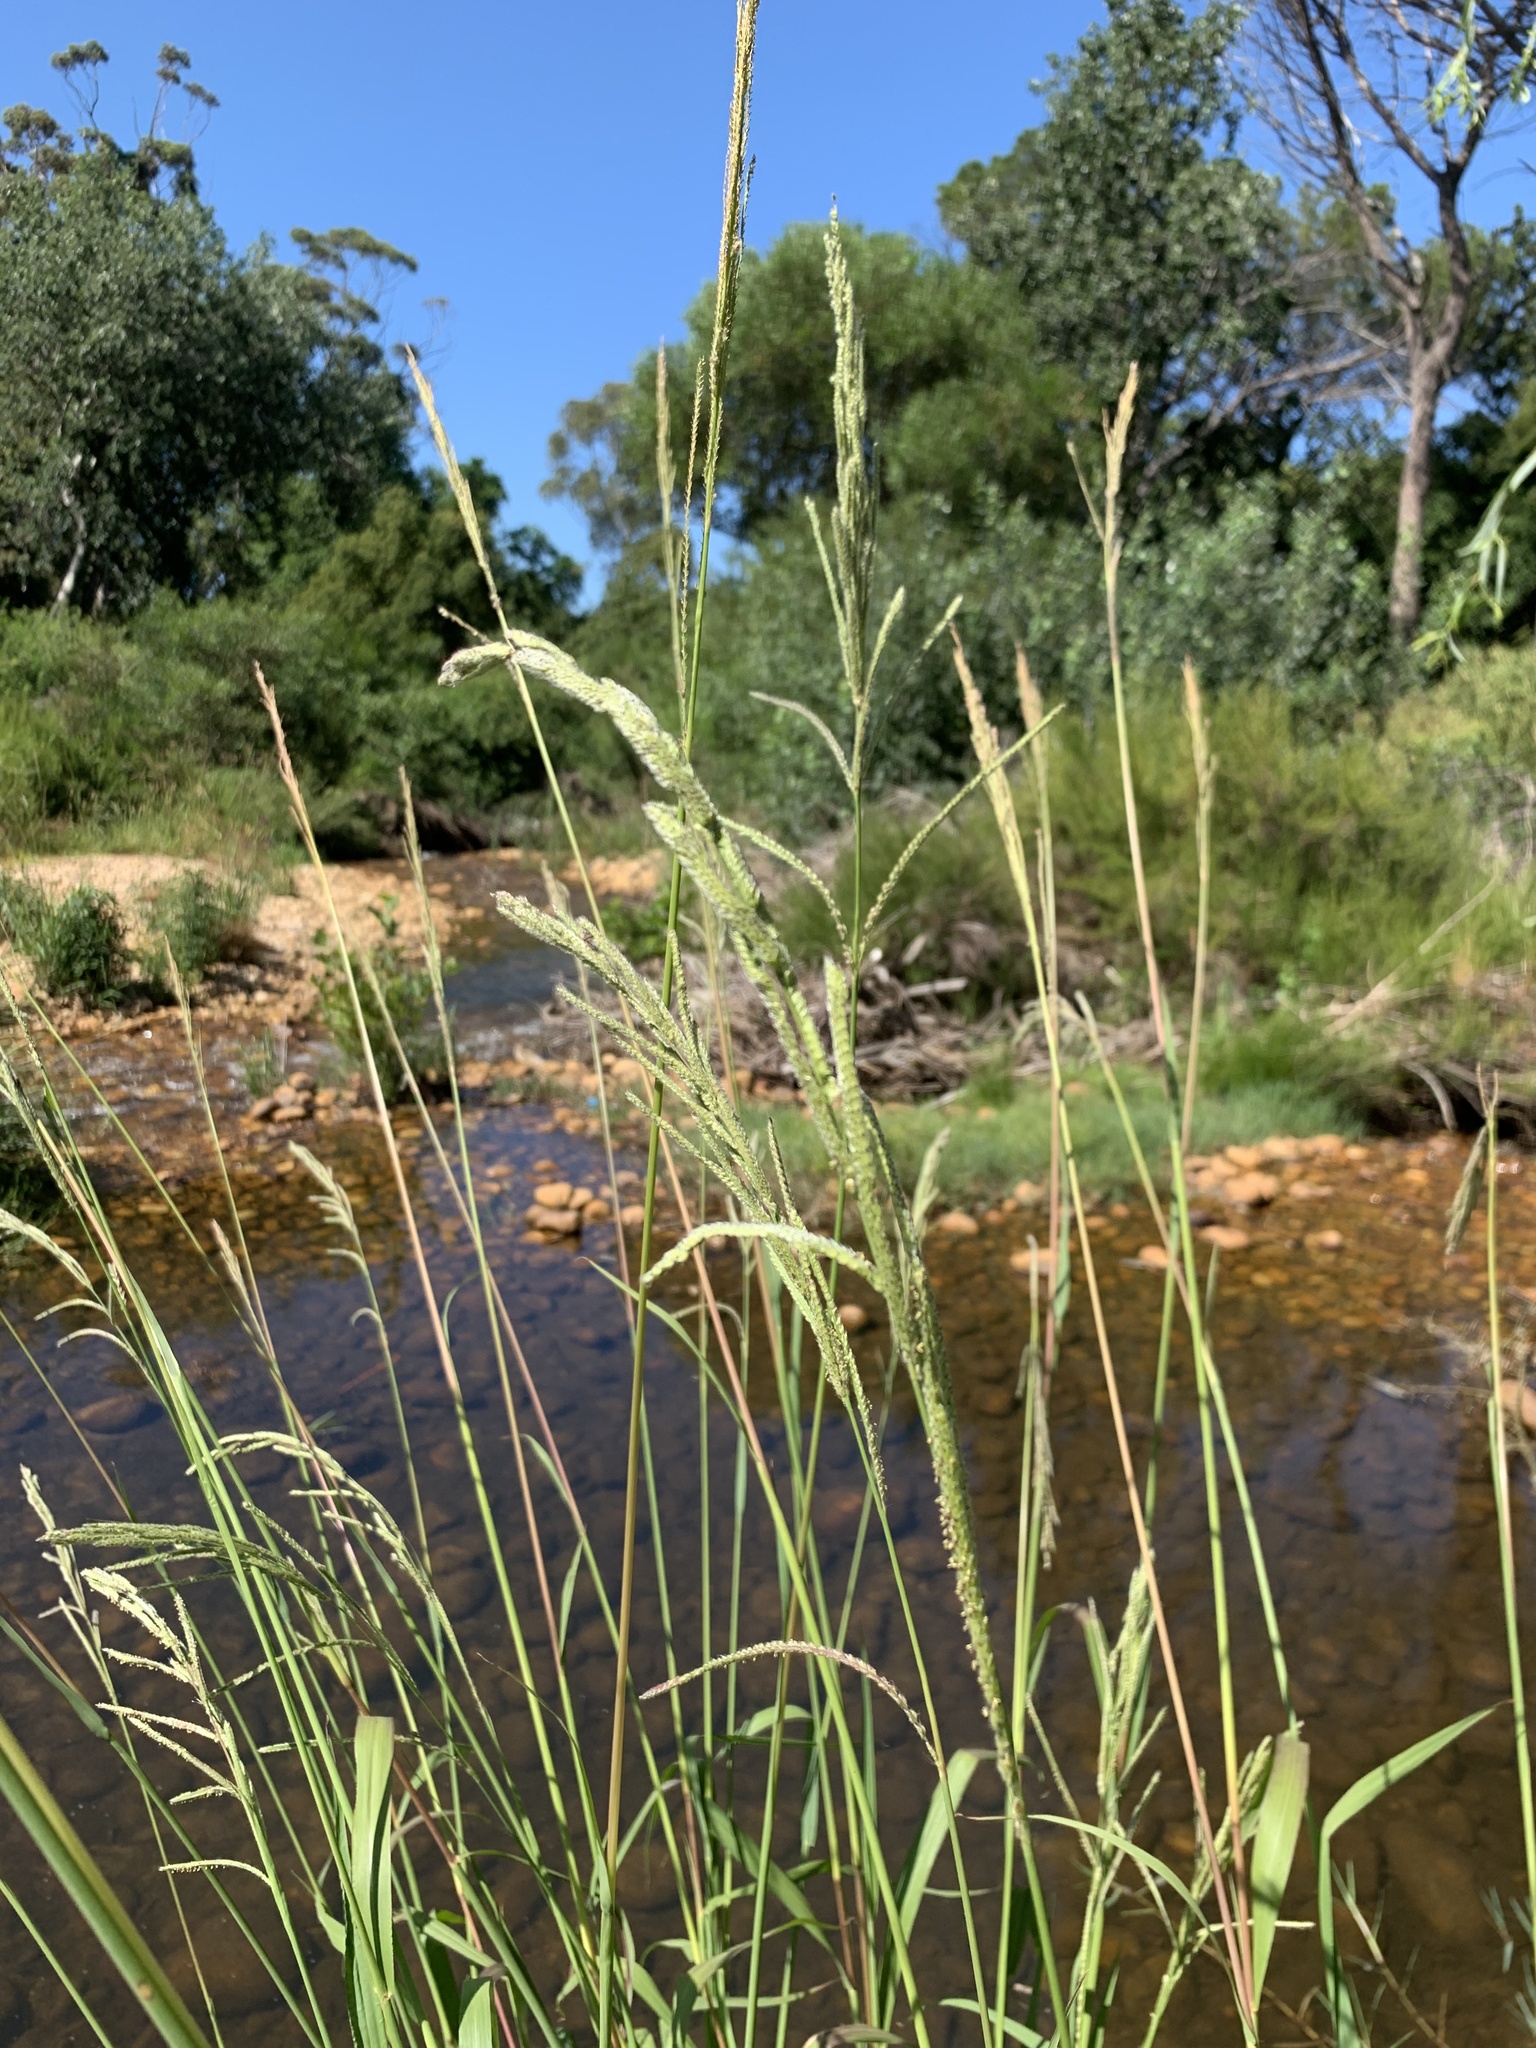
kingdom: Plantae
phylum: Tracheophyta
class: Liliopsida
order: Poales
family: Poaceae
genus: Paspalum
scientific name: Paspalum urvillei
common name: Vasey's grass
